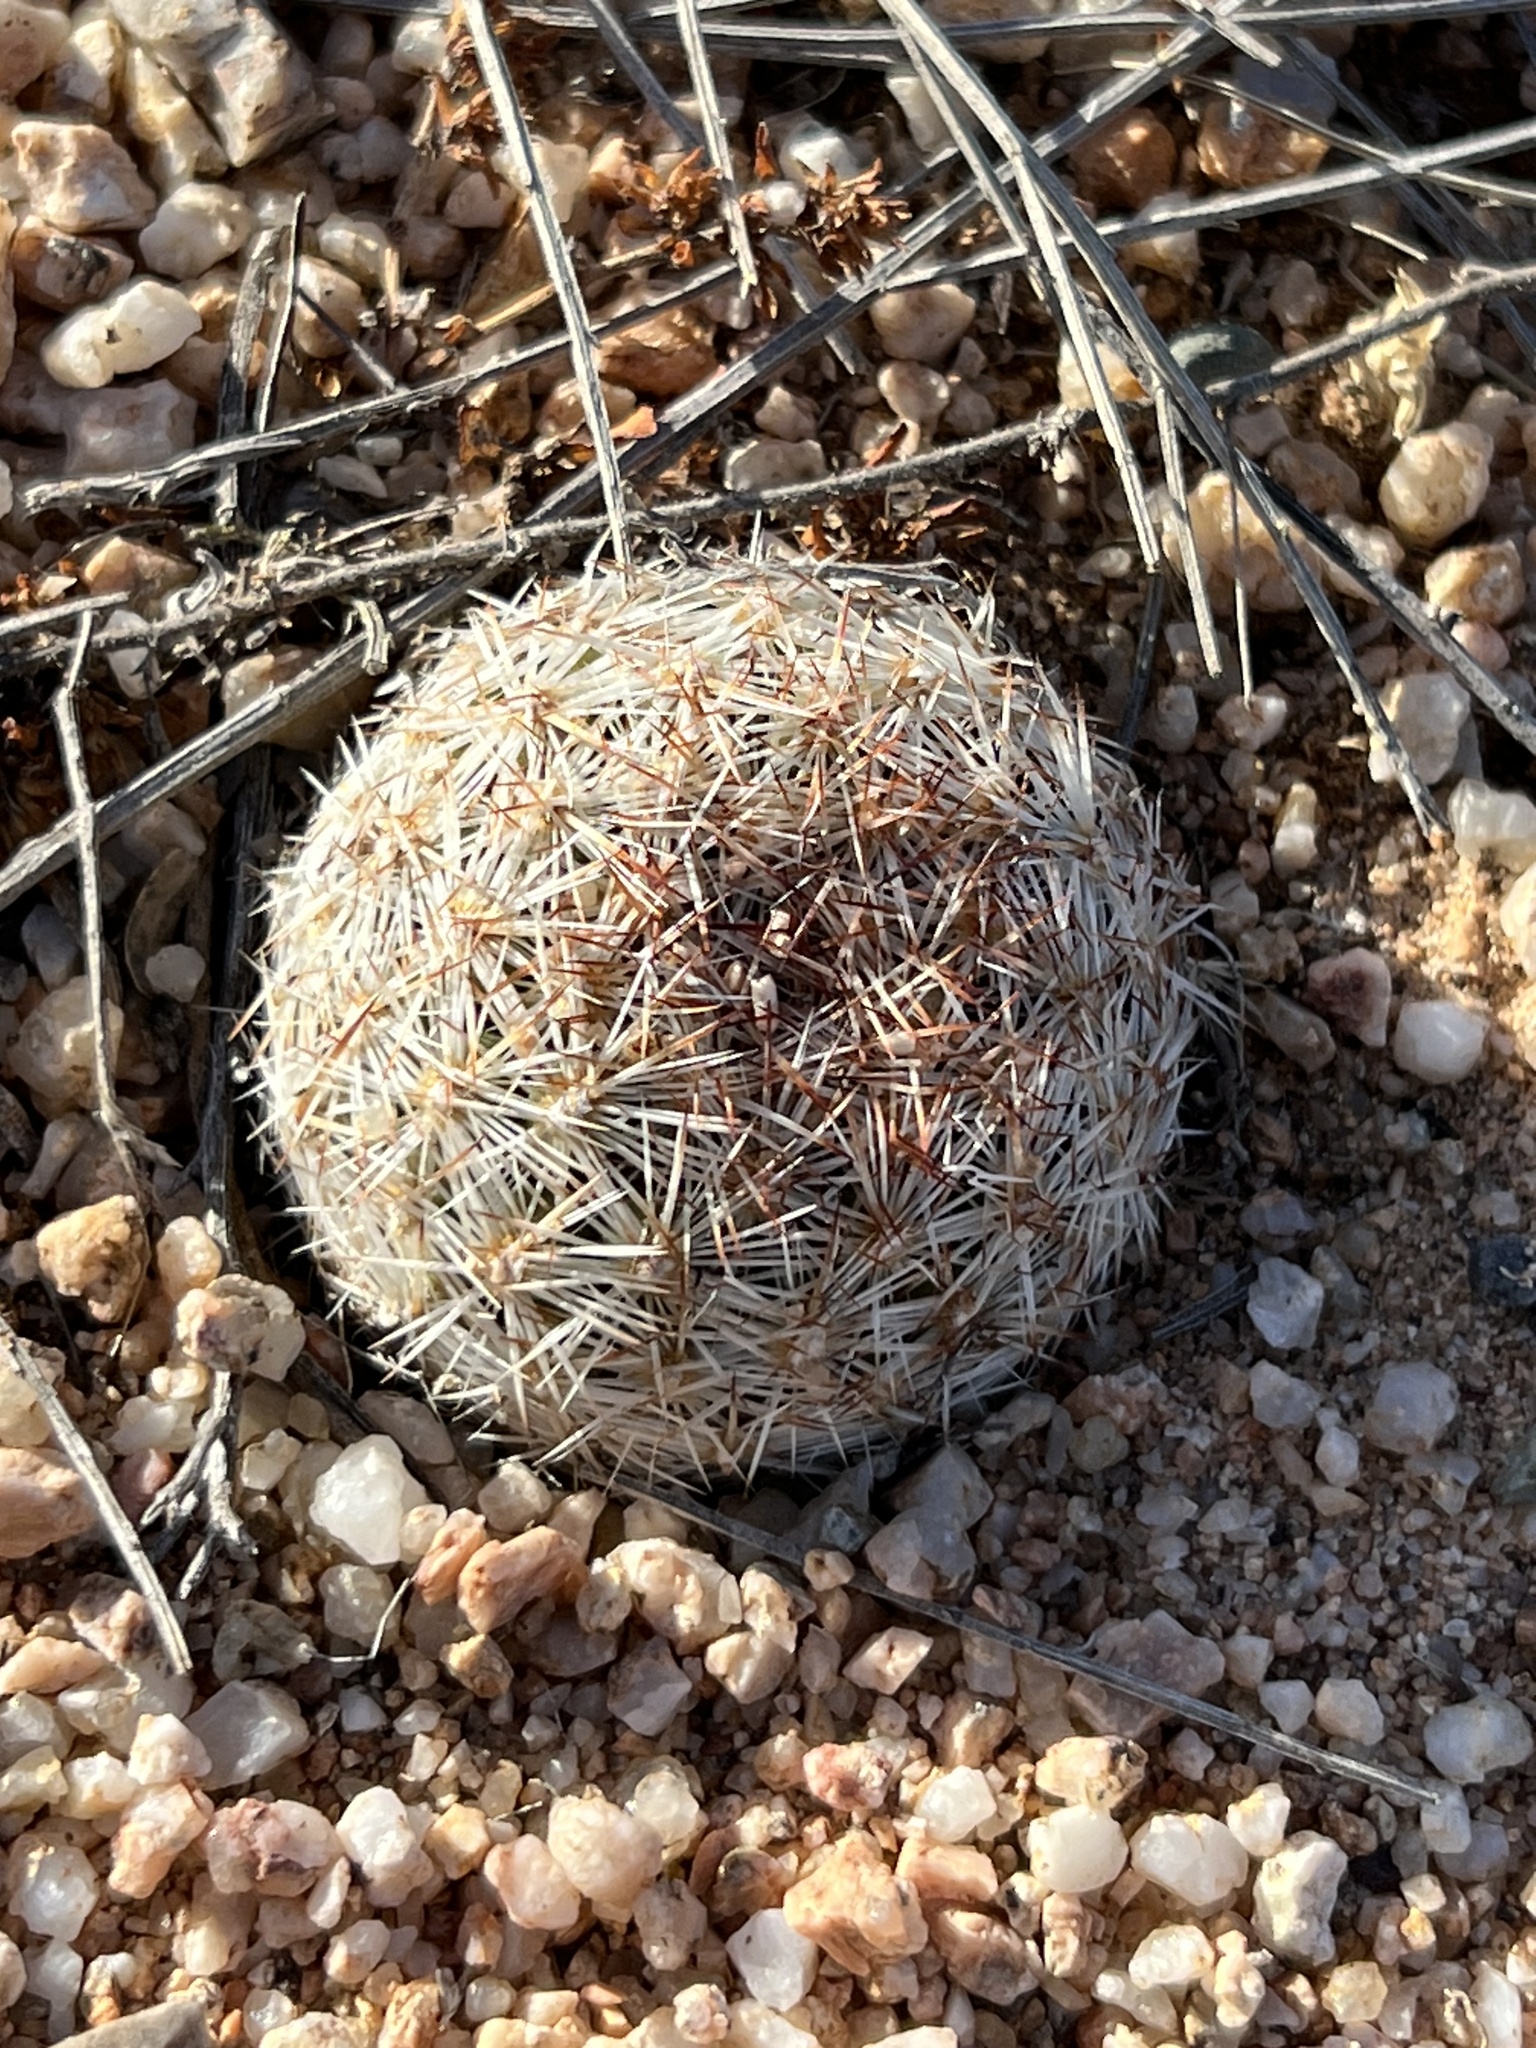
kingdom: Plantae
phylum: Tracheophyta
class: Magnoliopsida
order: Caryophyllales
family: Cactaceae
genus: Pelecyphora
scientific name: Pelecyphora vivipara
